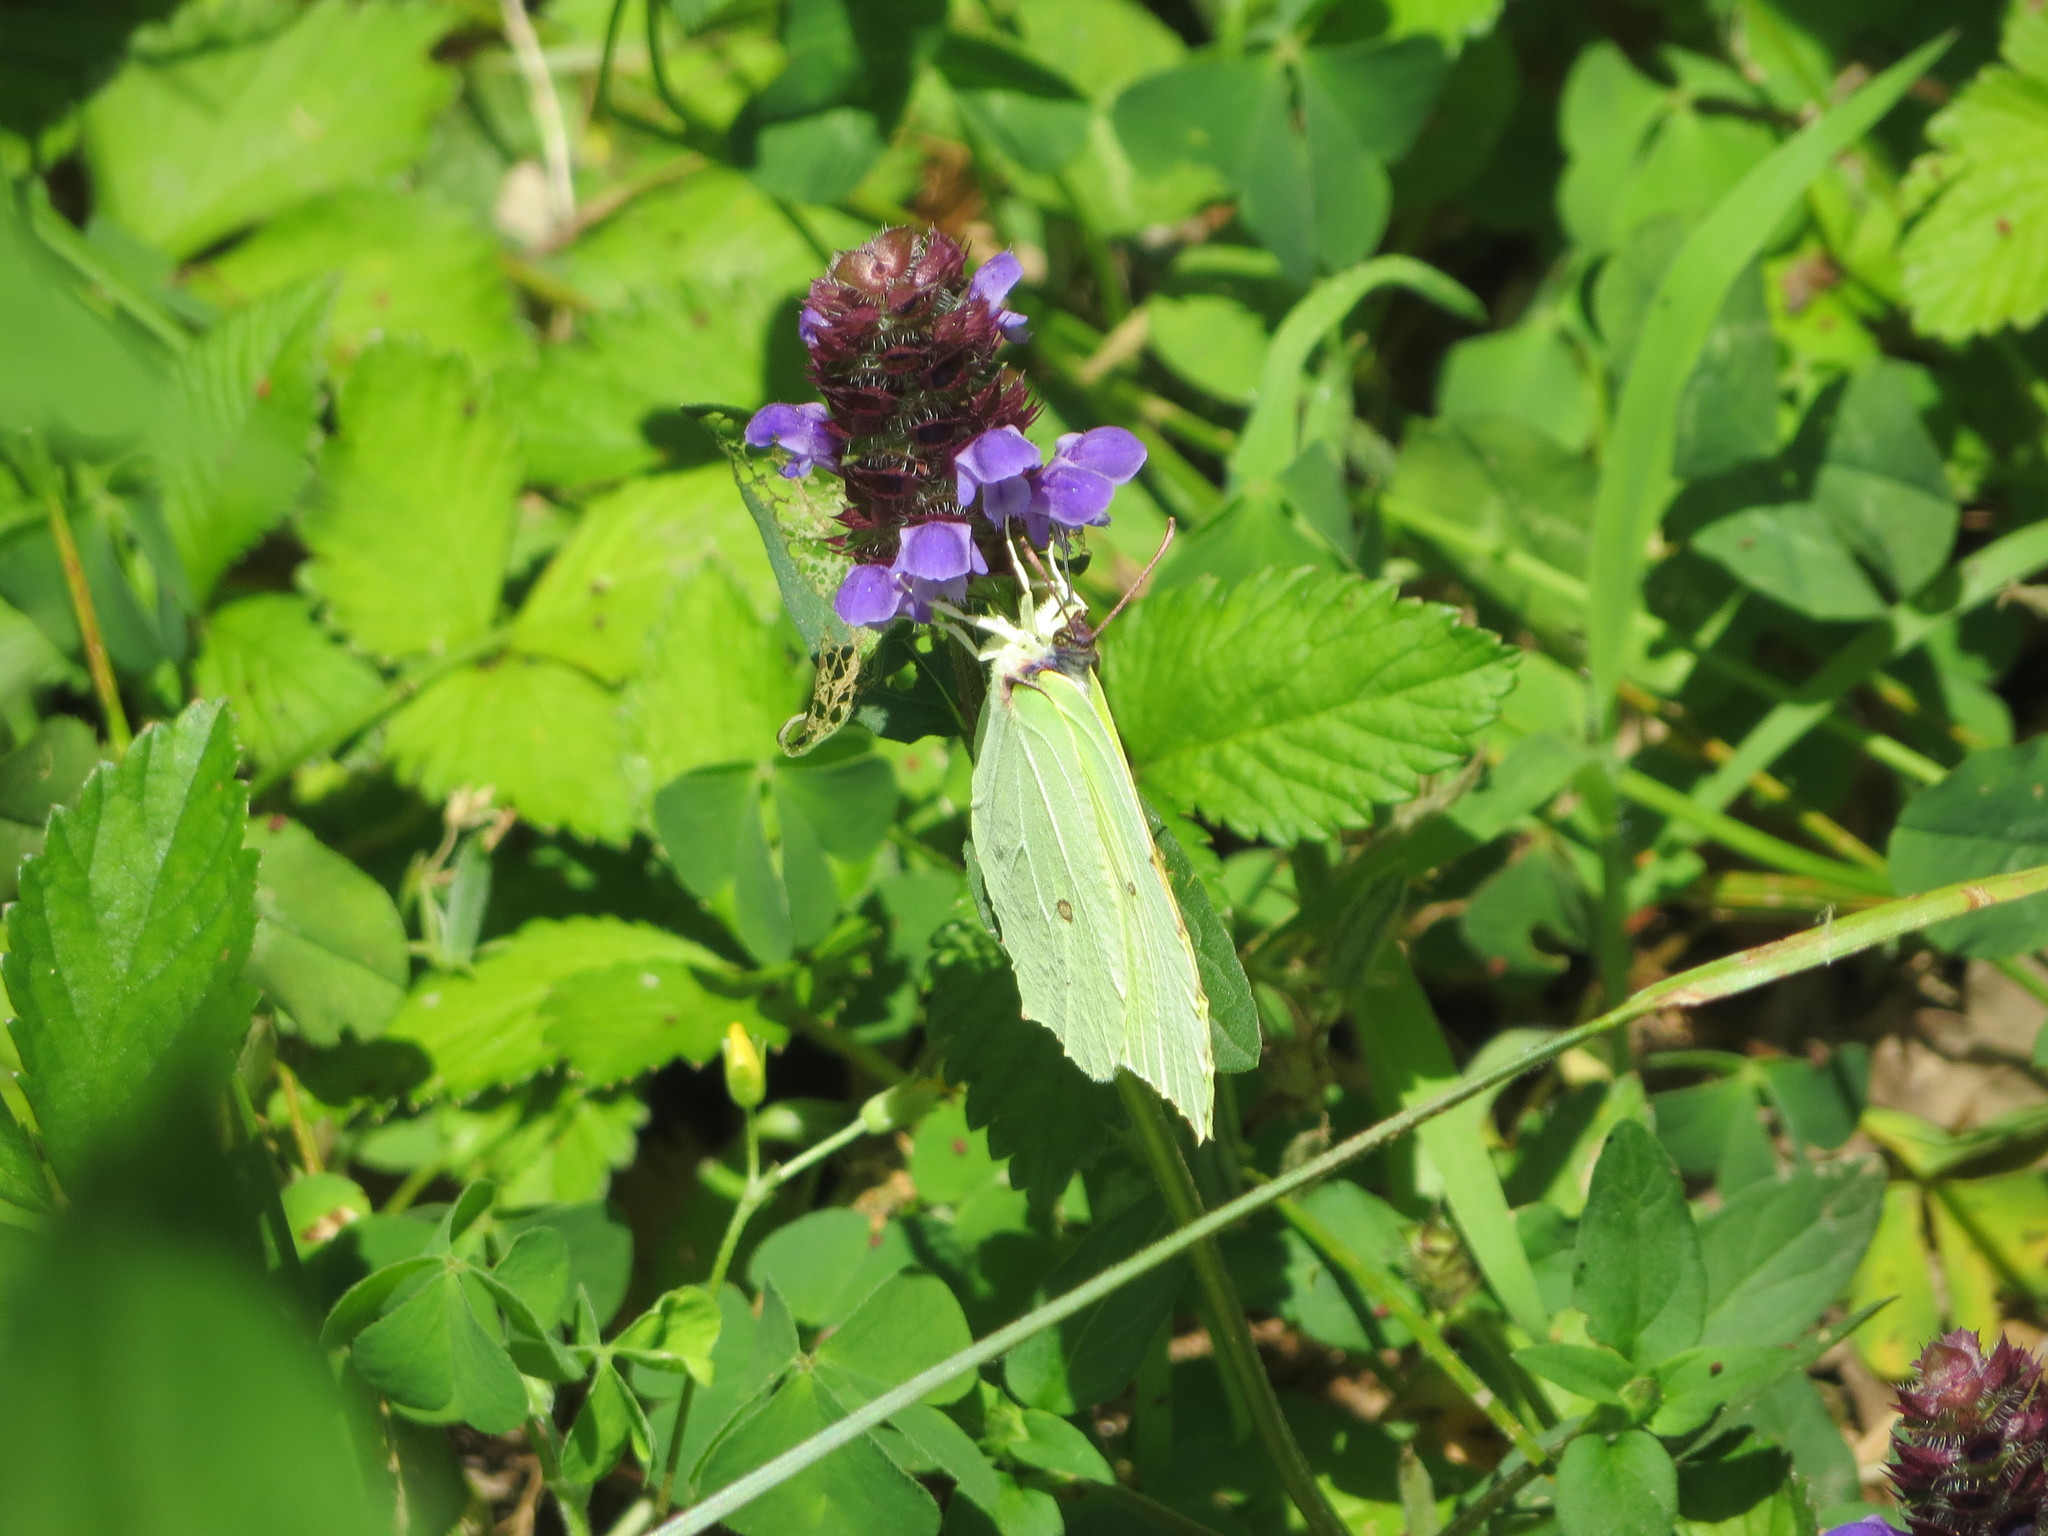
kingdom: Animalia
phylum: Arthropoda
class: Insecta
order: Lepidoptera
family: Pieridae
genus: Gonepteryx
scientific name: Gonepteryx rhamni
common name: Brimstone
